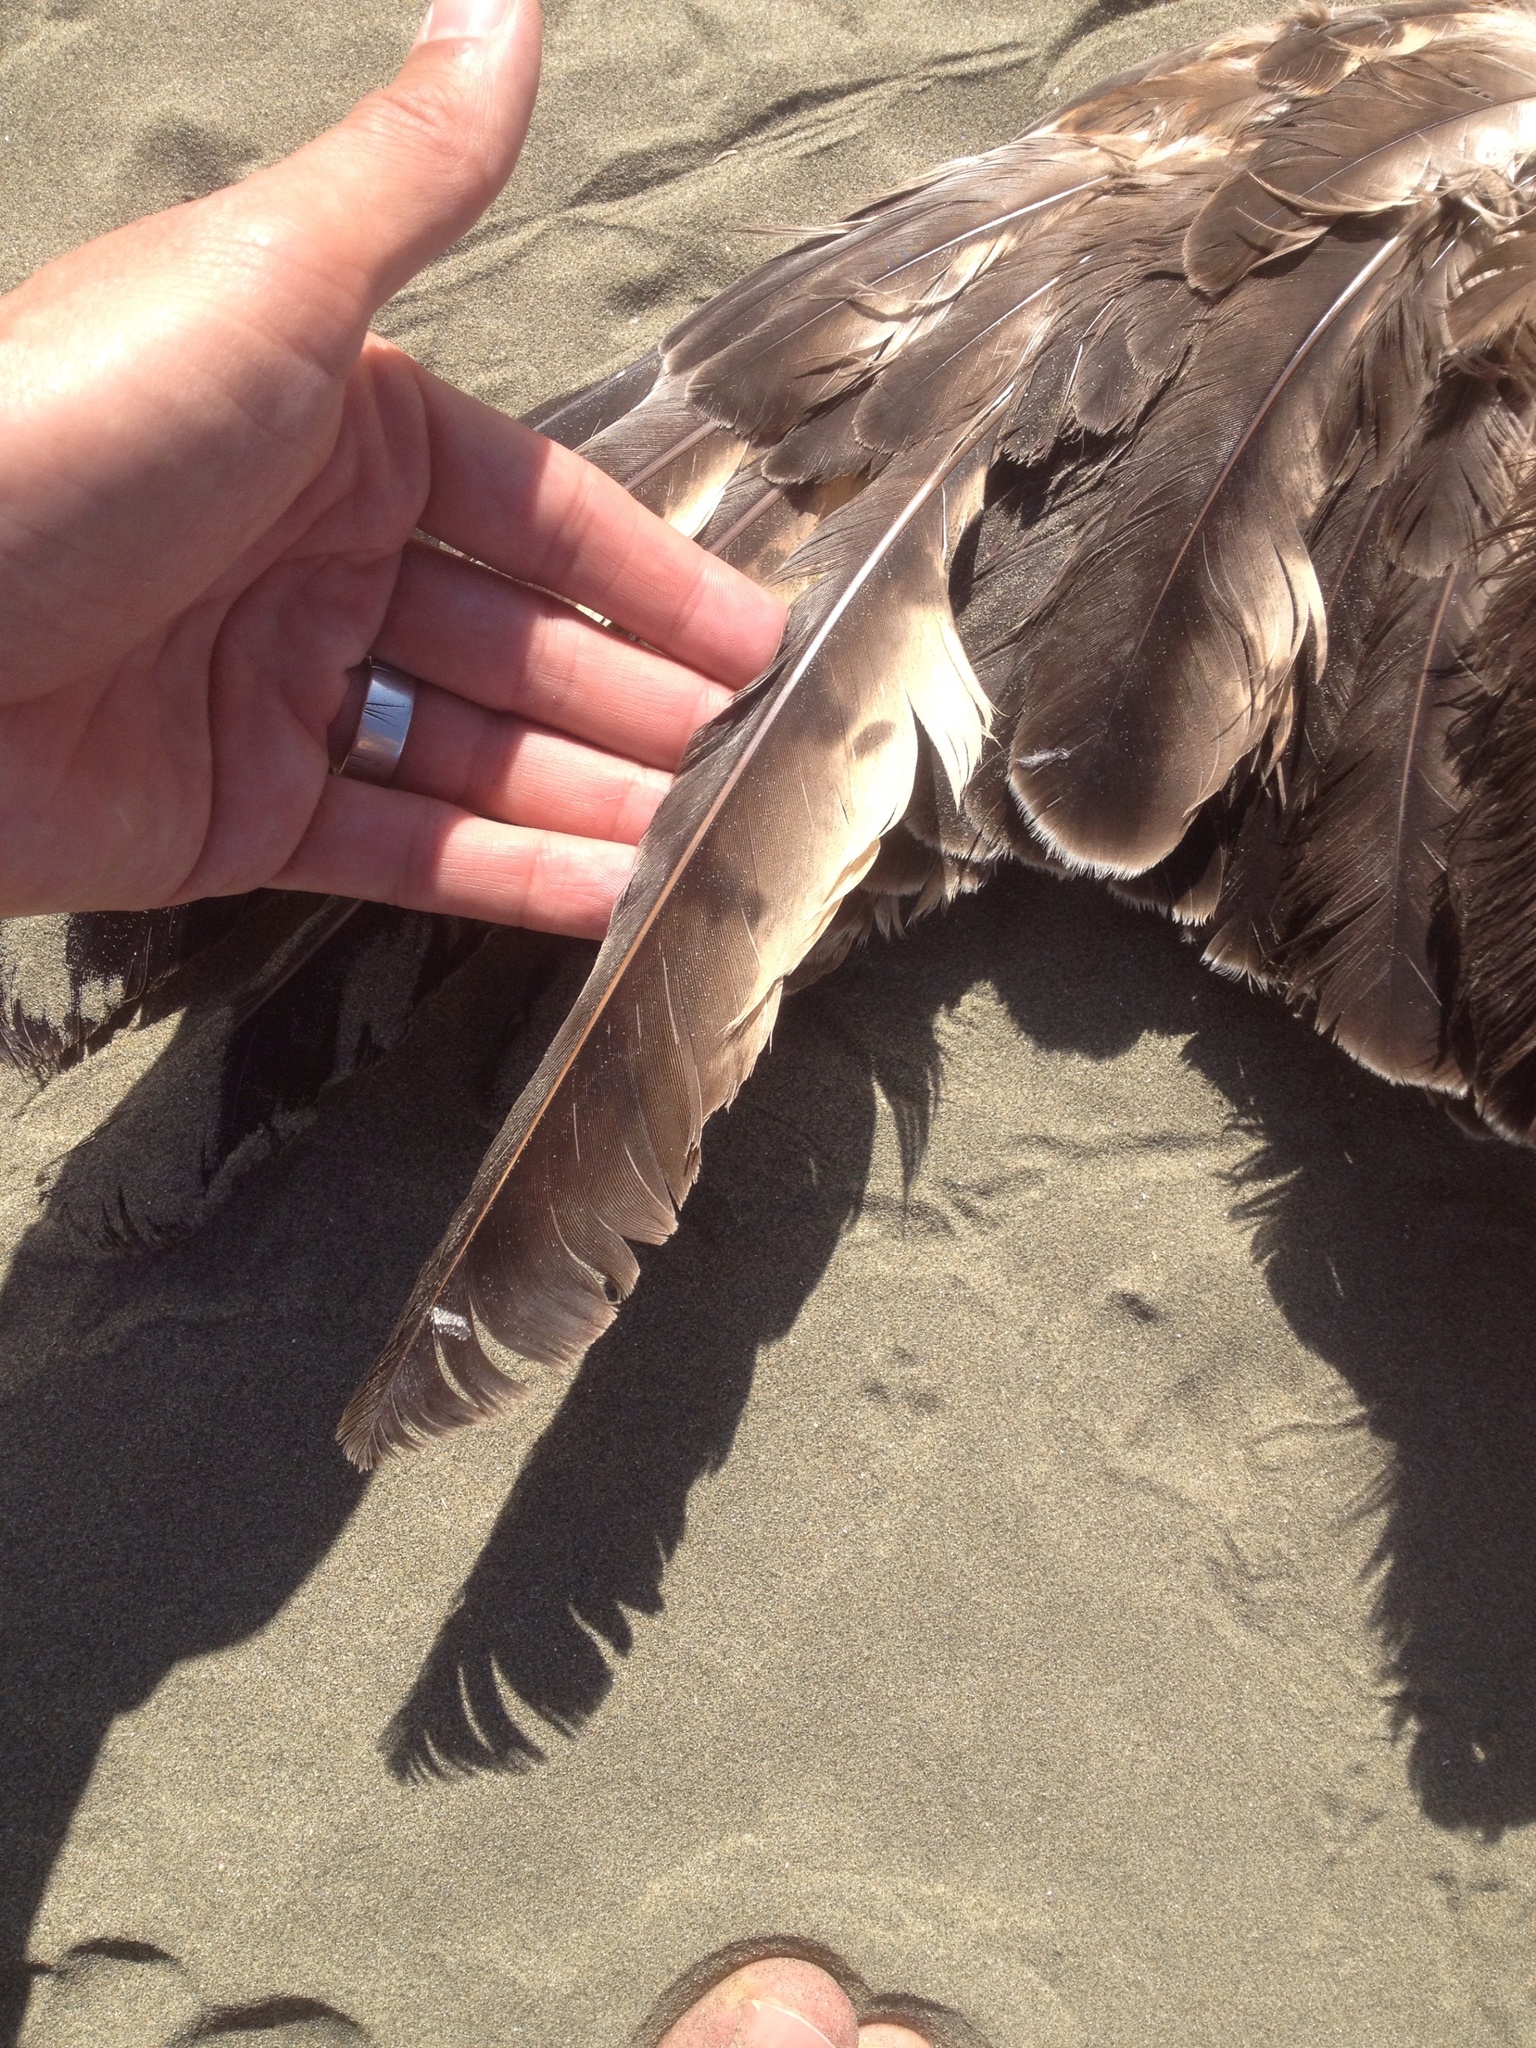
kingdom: Animalia
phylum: Chordata
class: Aves
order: Accipitriformes
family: Accipitridae
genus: Circus
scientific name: Circus approximans
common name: Swamp harrier
